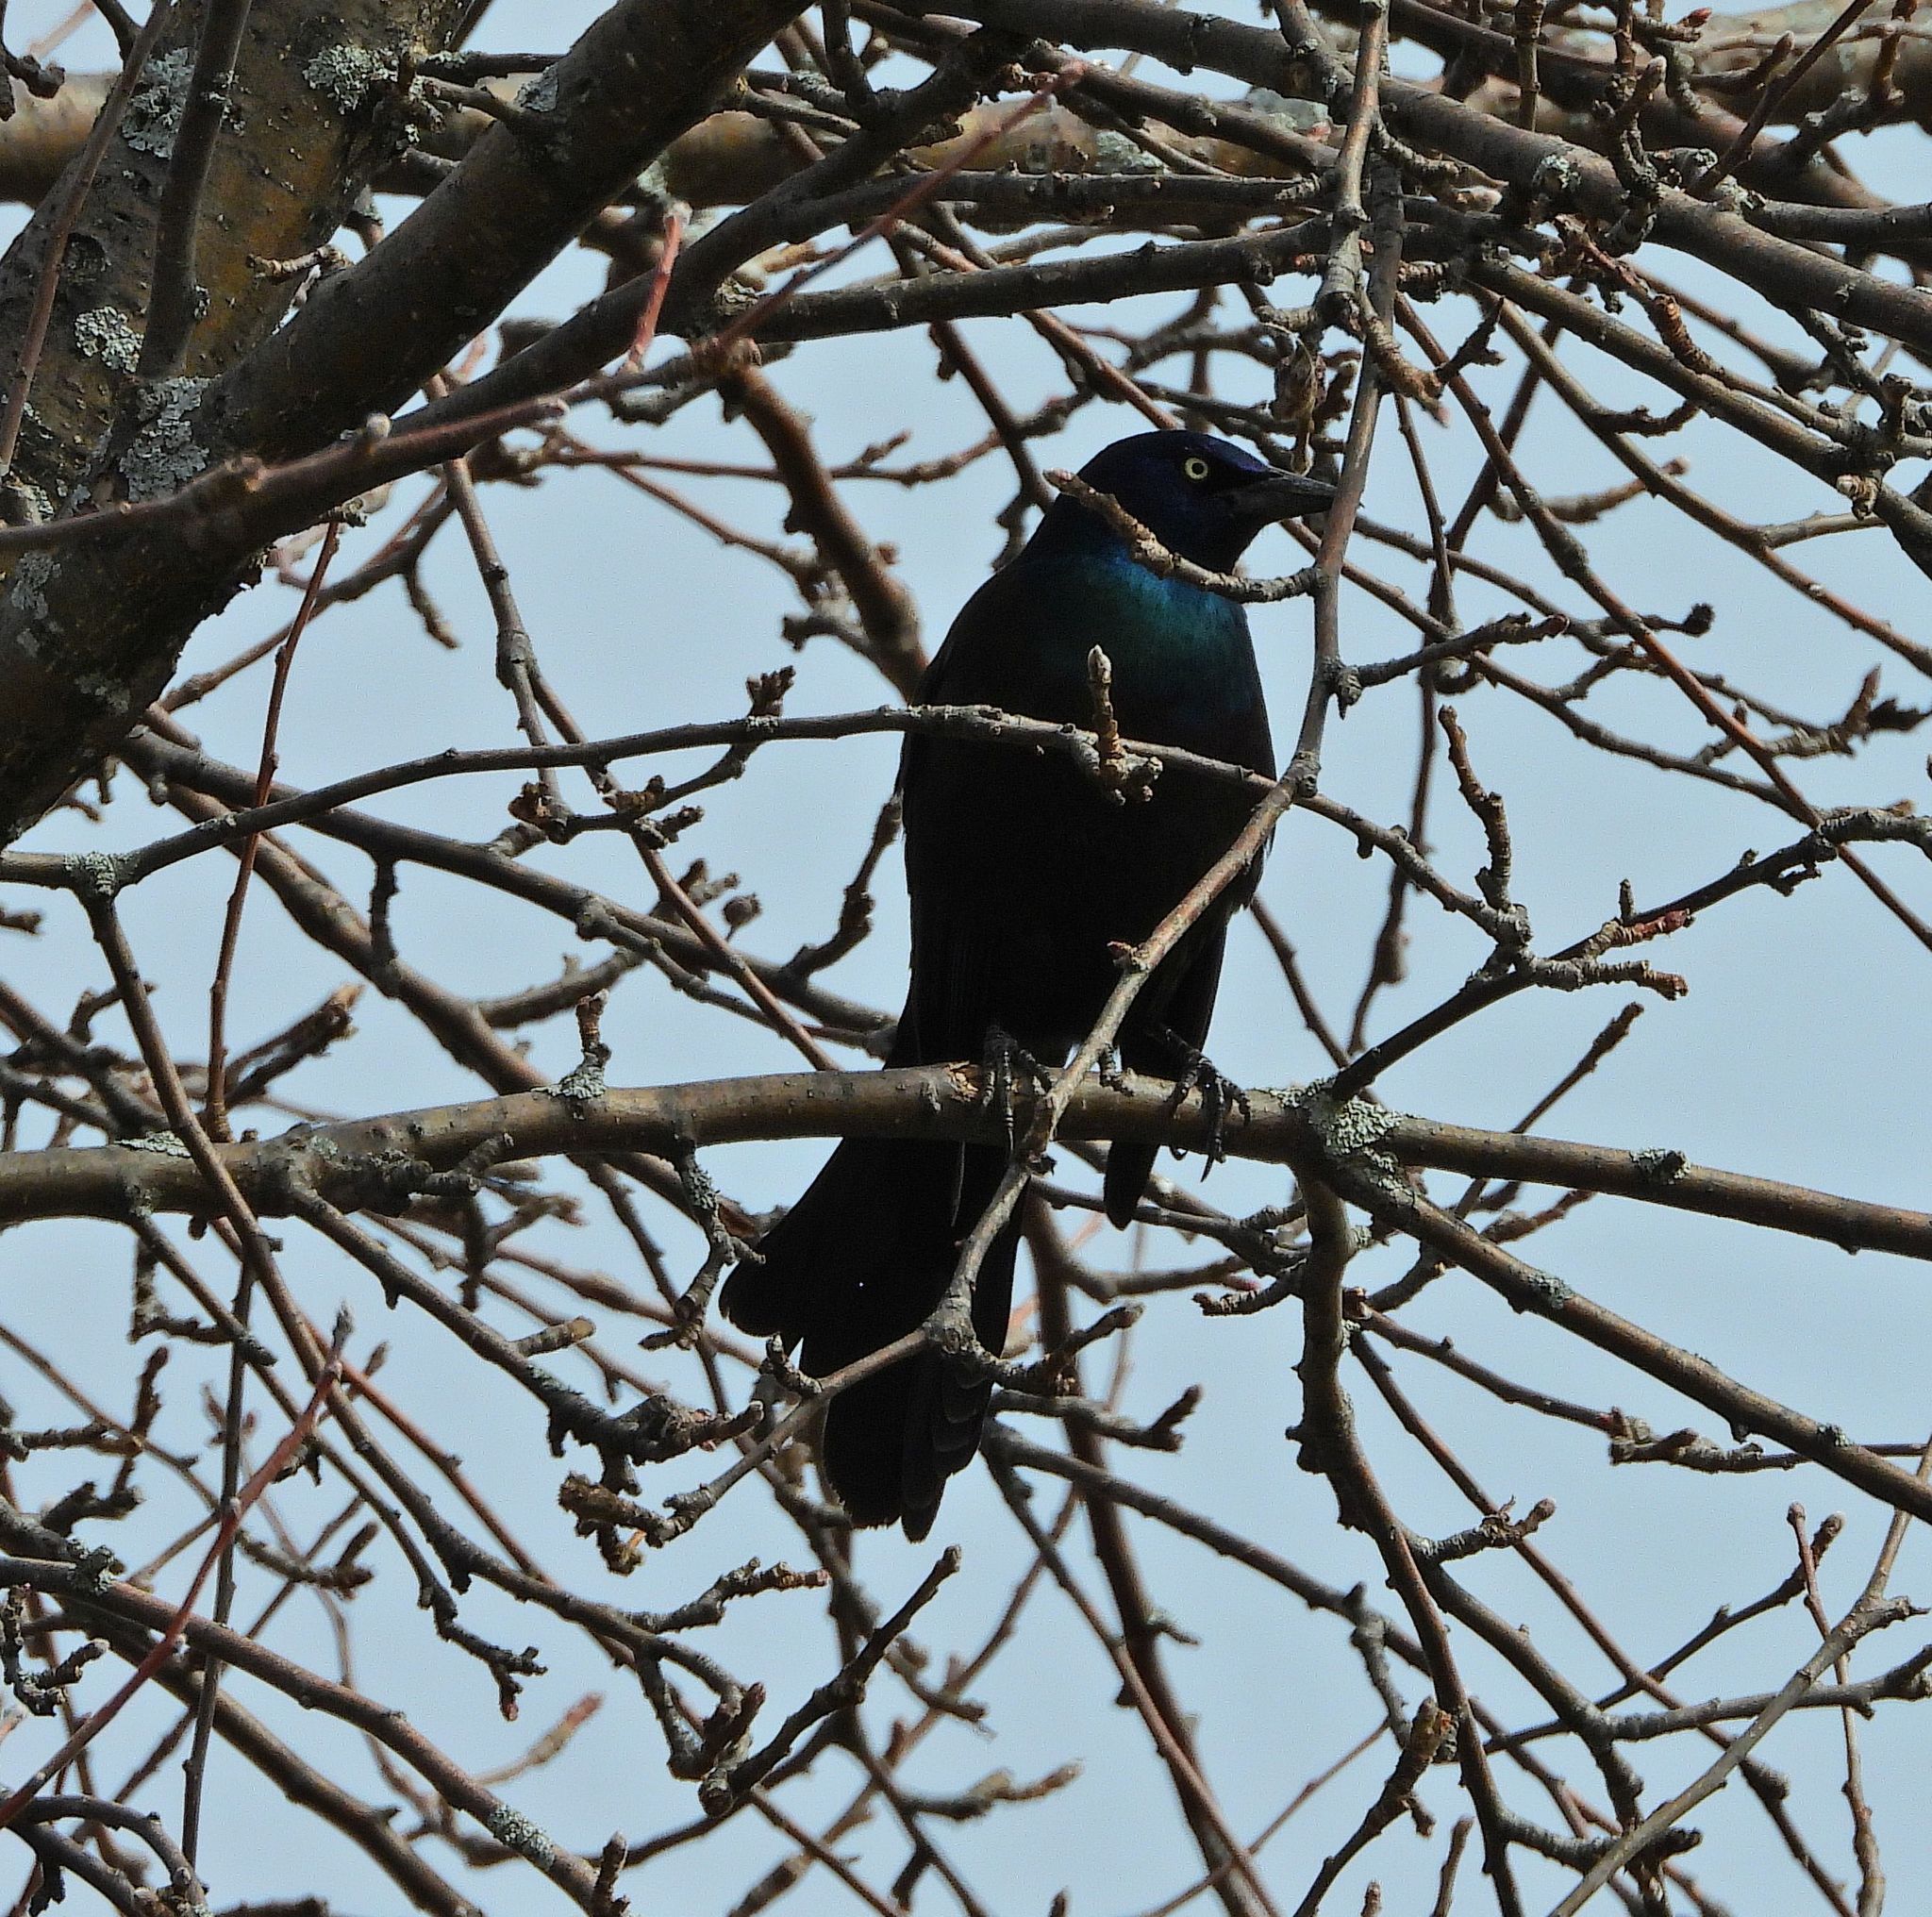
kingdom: Animalia
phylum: Chordata
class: Aves
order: Passeriformes
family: Icteridae
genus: Quiscalus
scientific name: Quiscalus quiscula
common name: Common grackle
